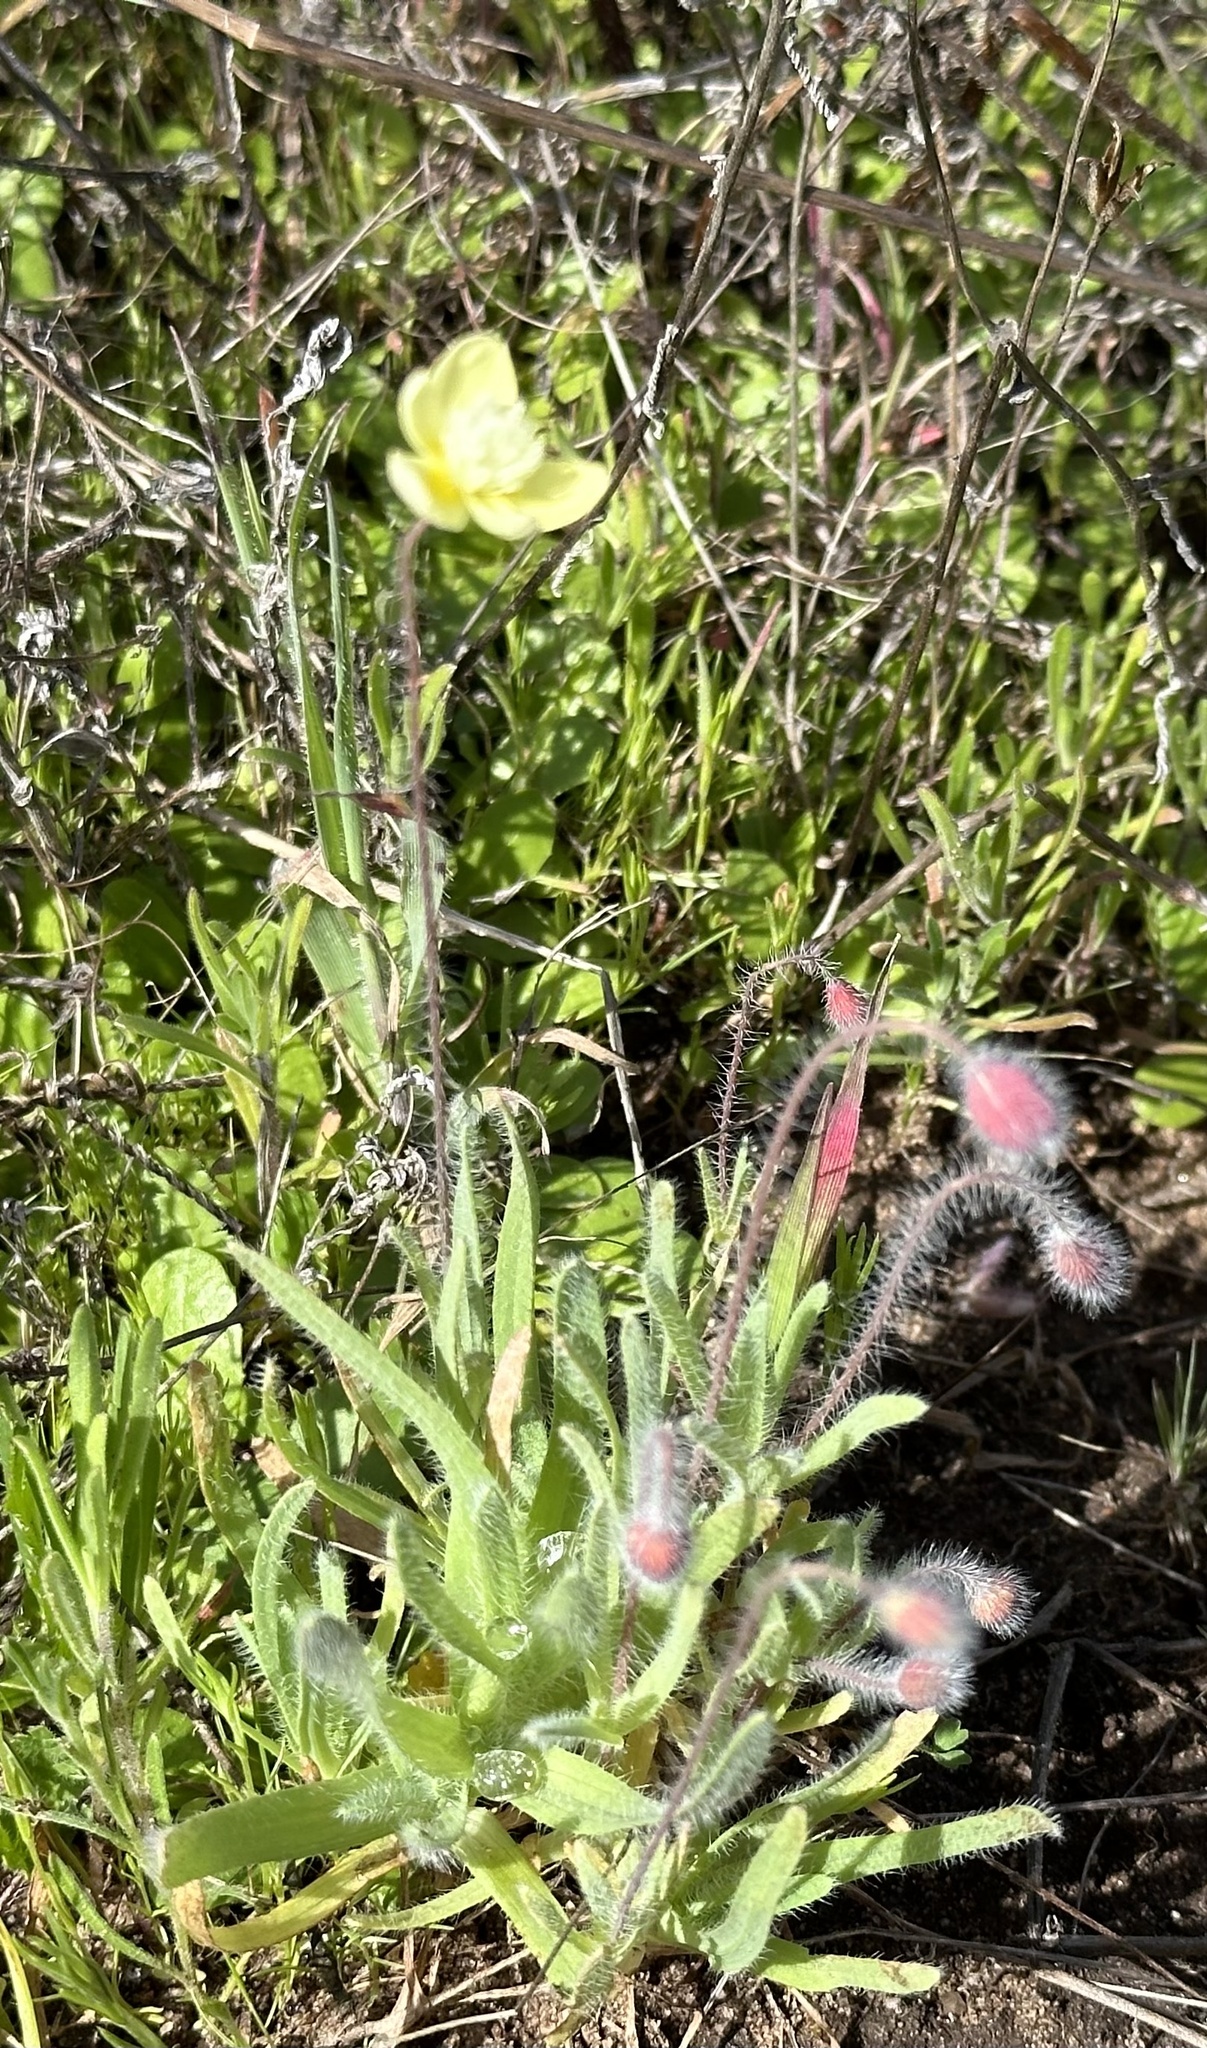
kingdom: Plantae
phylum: Tracheophyta
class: Magnoliopsida
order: Ranunculales
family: Papaveraceae
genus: Platystemon
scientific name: Platystemon californicus
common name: Cream-cups
